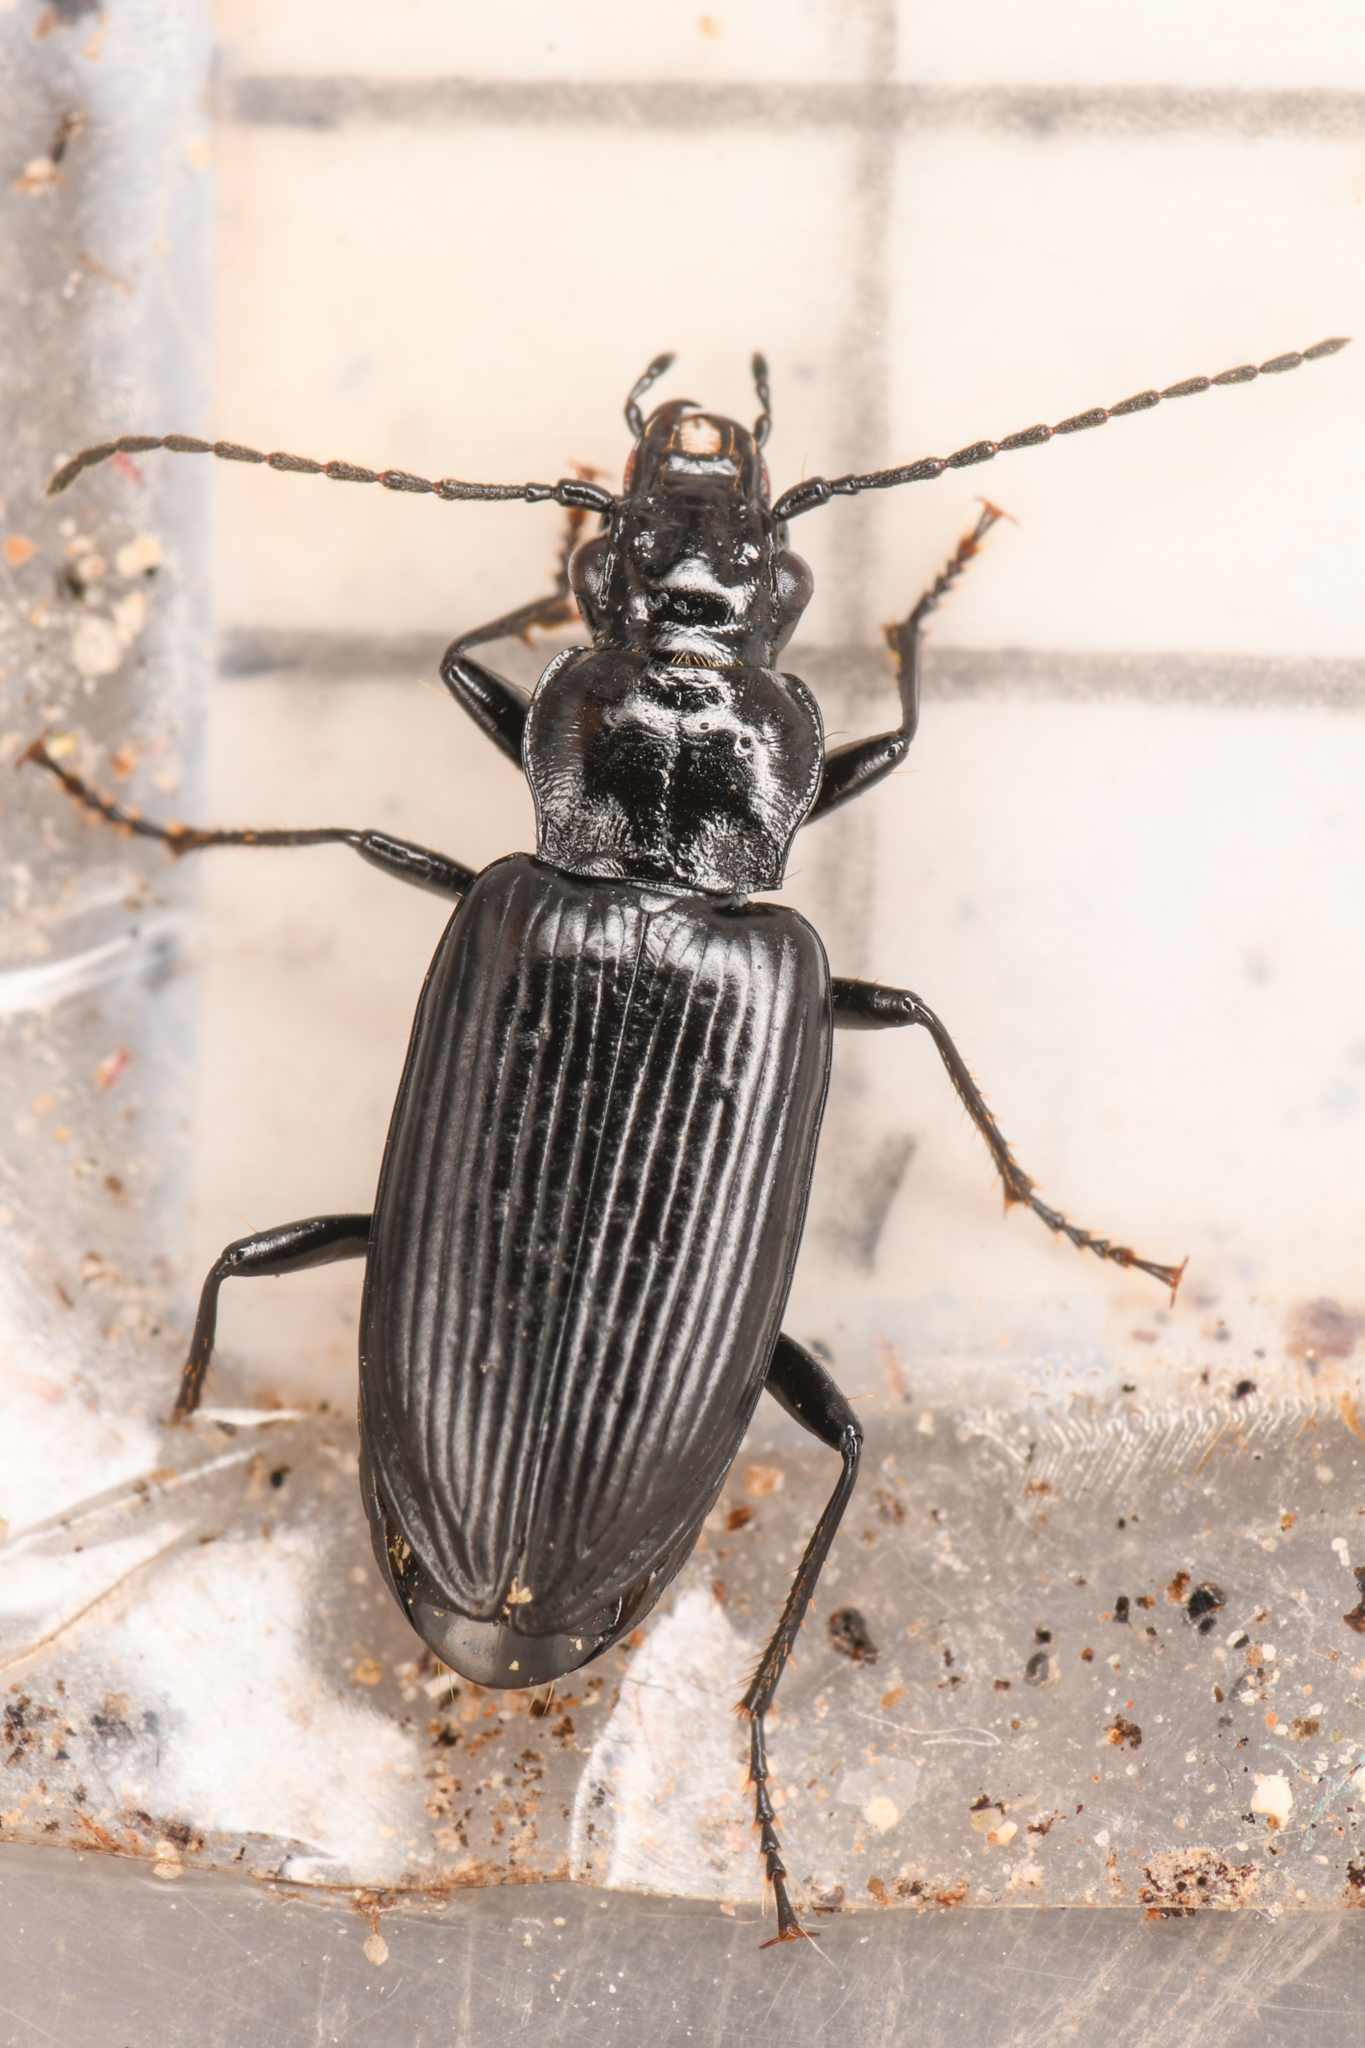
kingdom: Animalia
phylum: Arthropoda
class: Insecta
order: Coleoptera
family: Carabidae
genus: Diplous
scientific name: Diplous aterrimus
